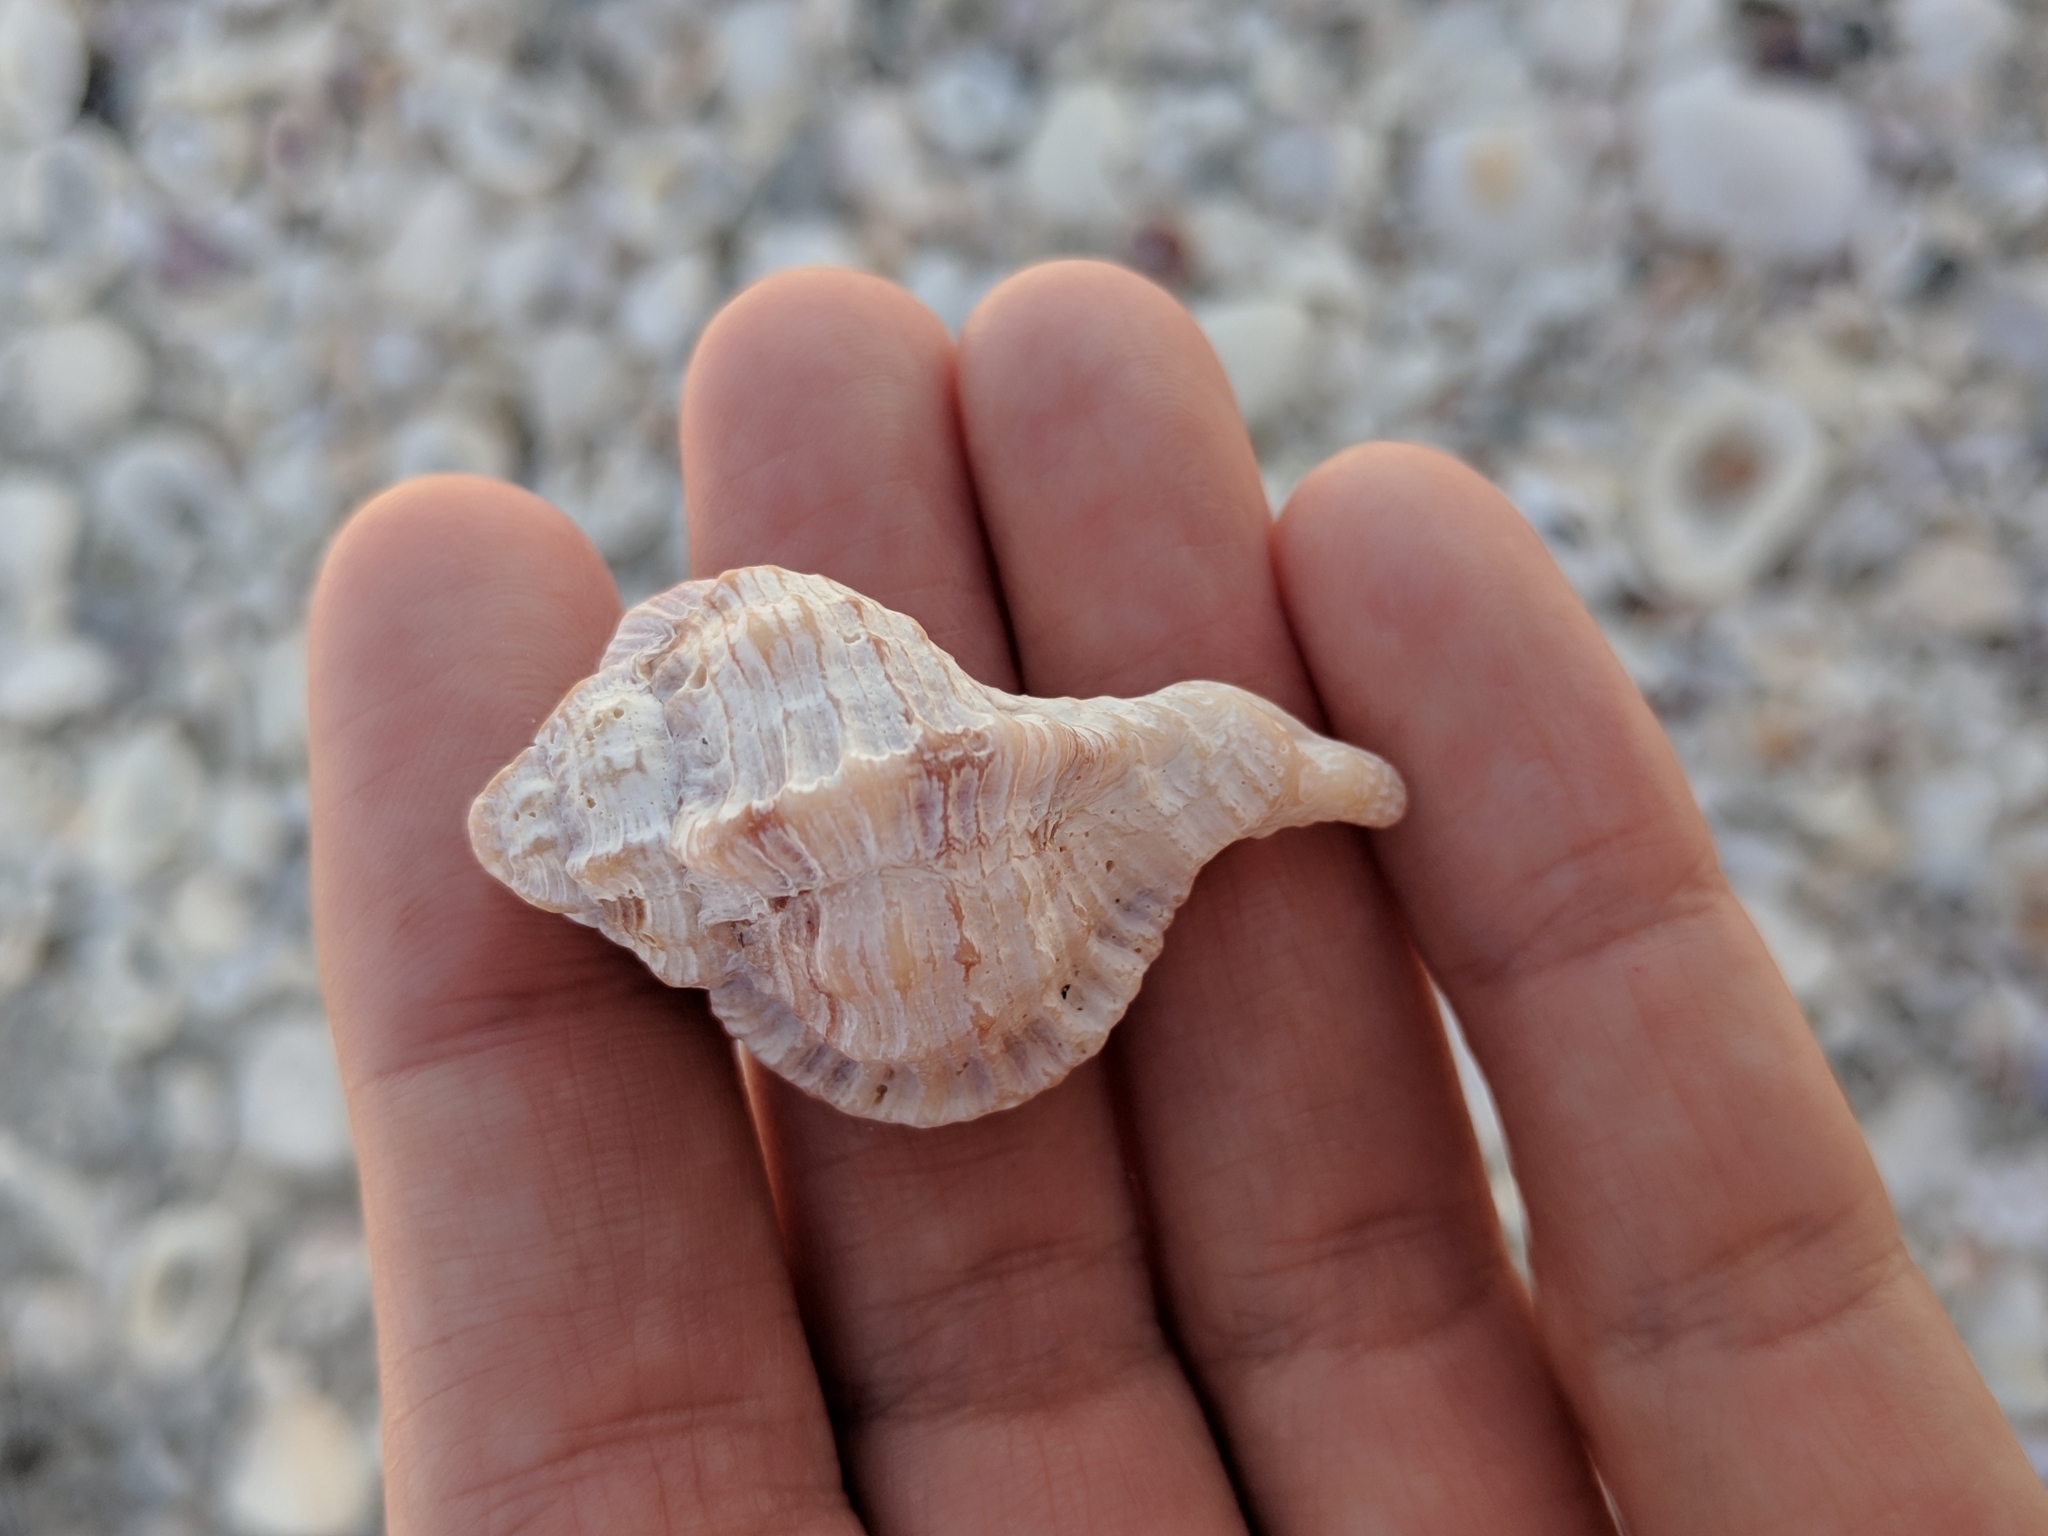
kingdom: Animalia
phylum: Mollusca
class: Gastropoda
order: Neogastropoda
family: Muricidae
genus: Phyllonotus
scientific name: Phyllonotus pomum
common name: Apple murex
